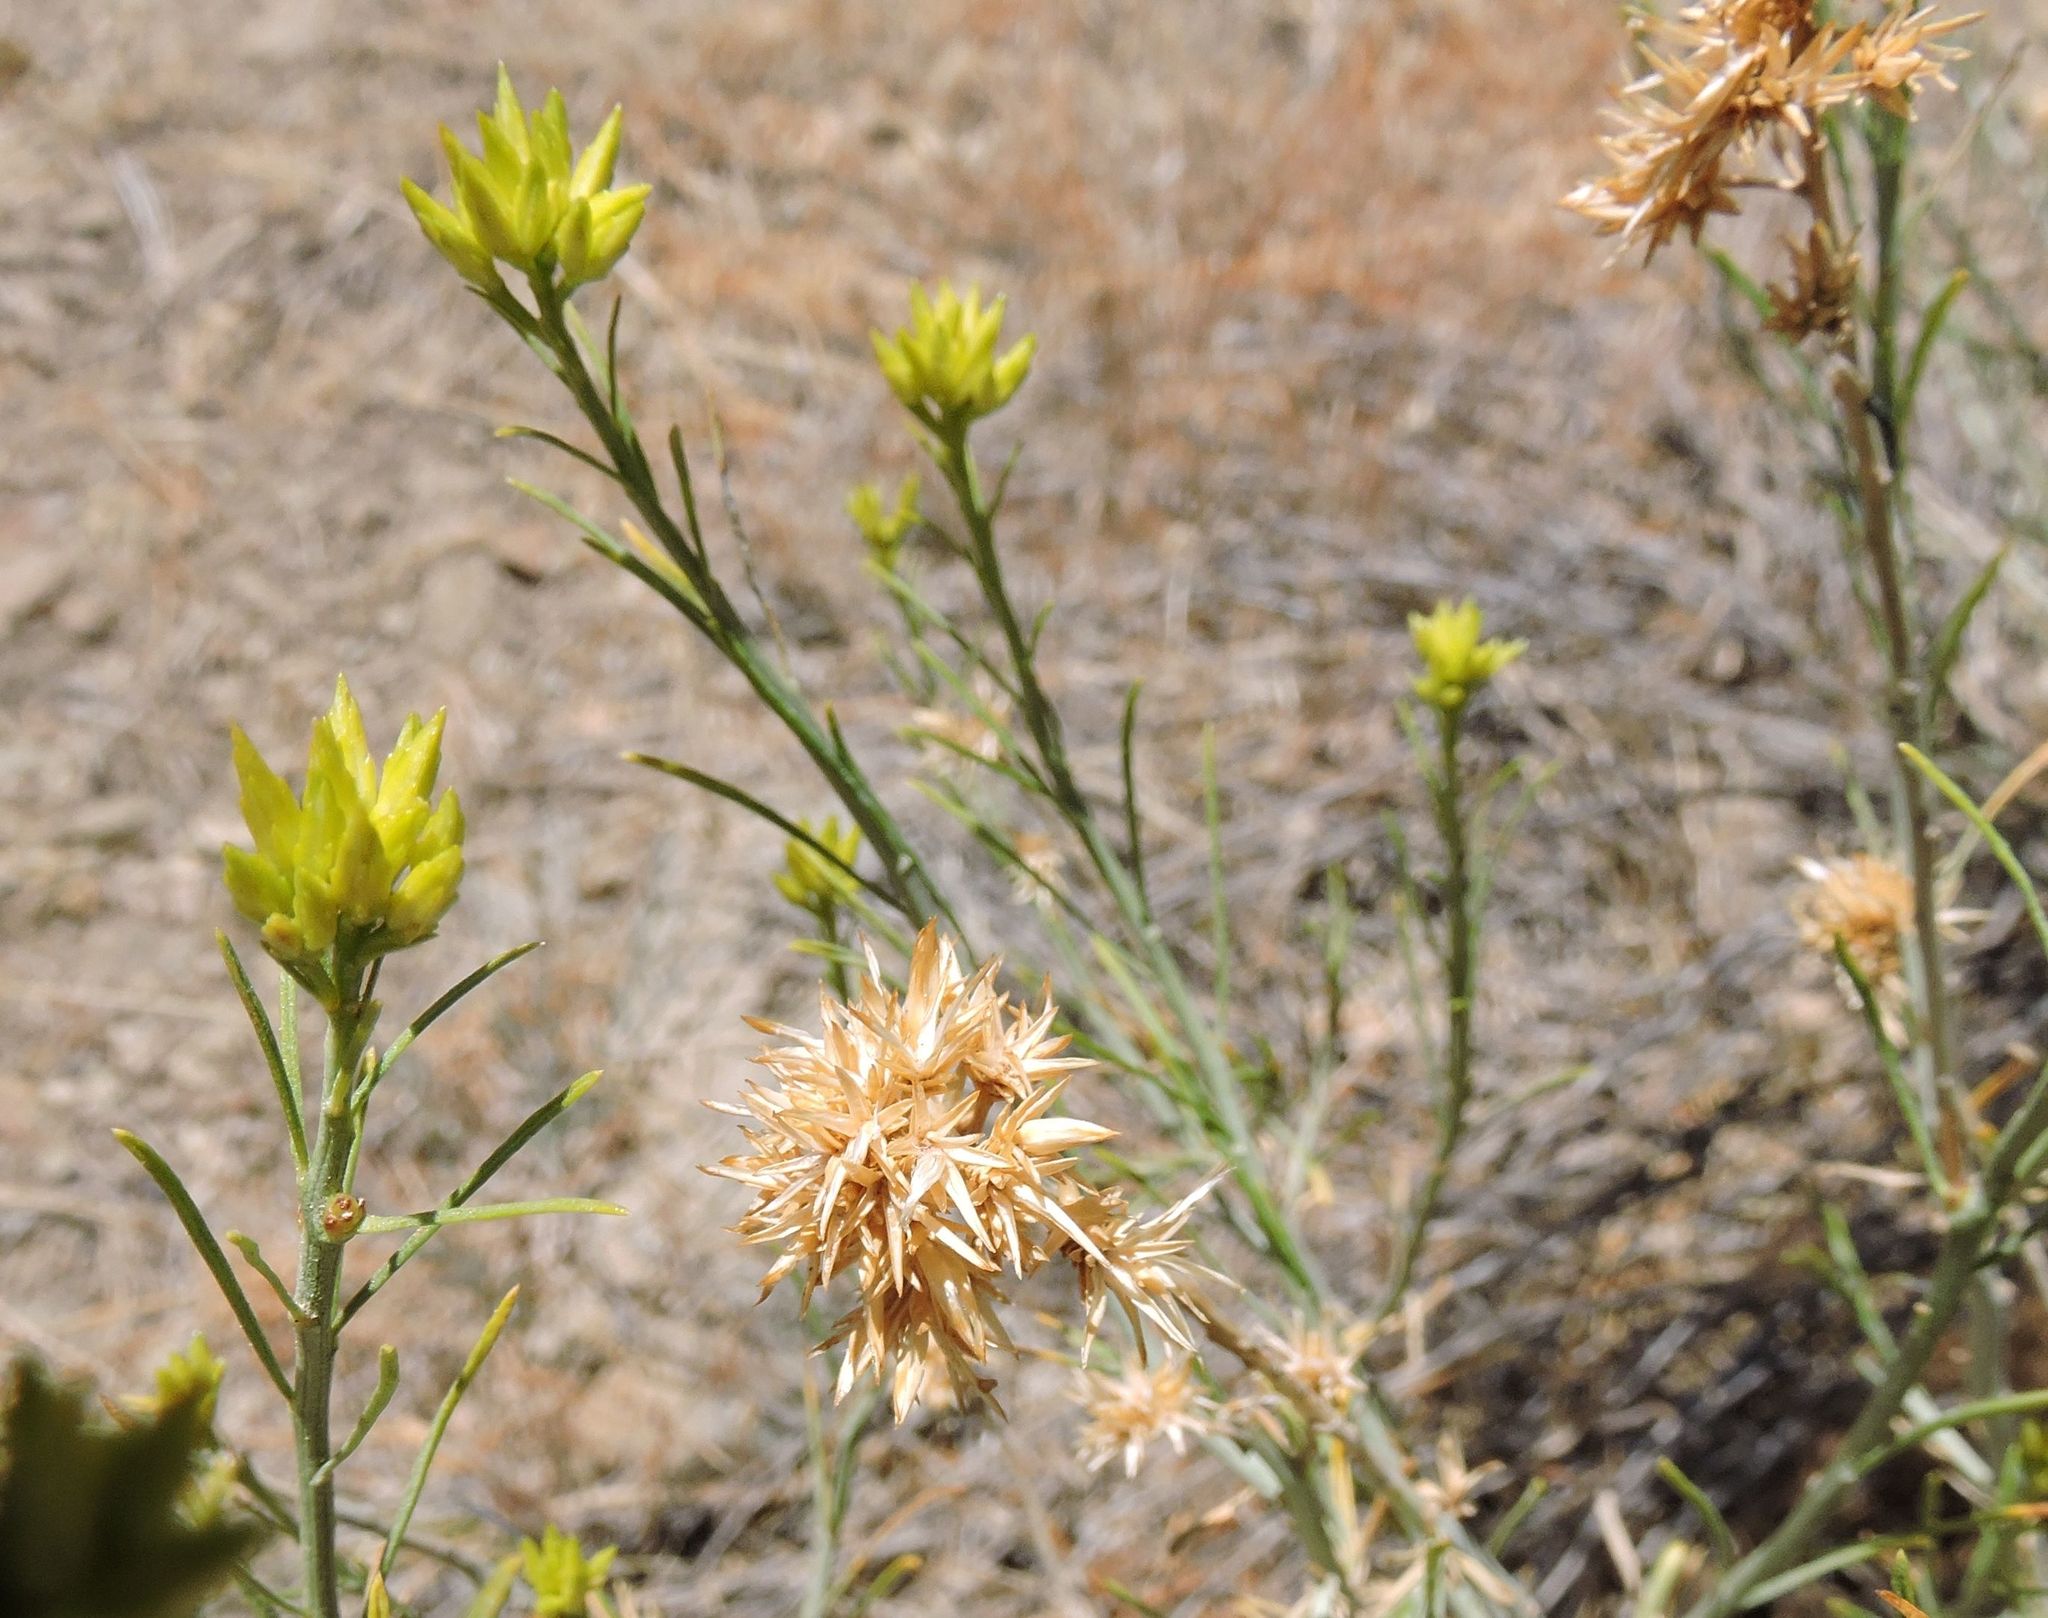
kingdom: Plantae
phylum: Tracheophyta
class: Magnoliopsida
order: Asterales
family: Asteraceae
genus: Ericameria
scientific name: Ericameria nauseosa
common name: Rubber rabbitbrush
